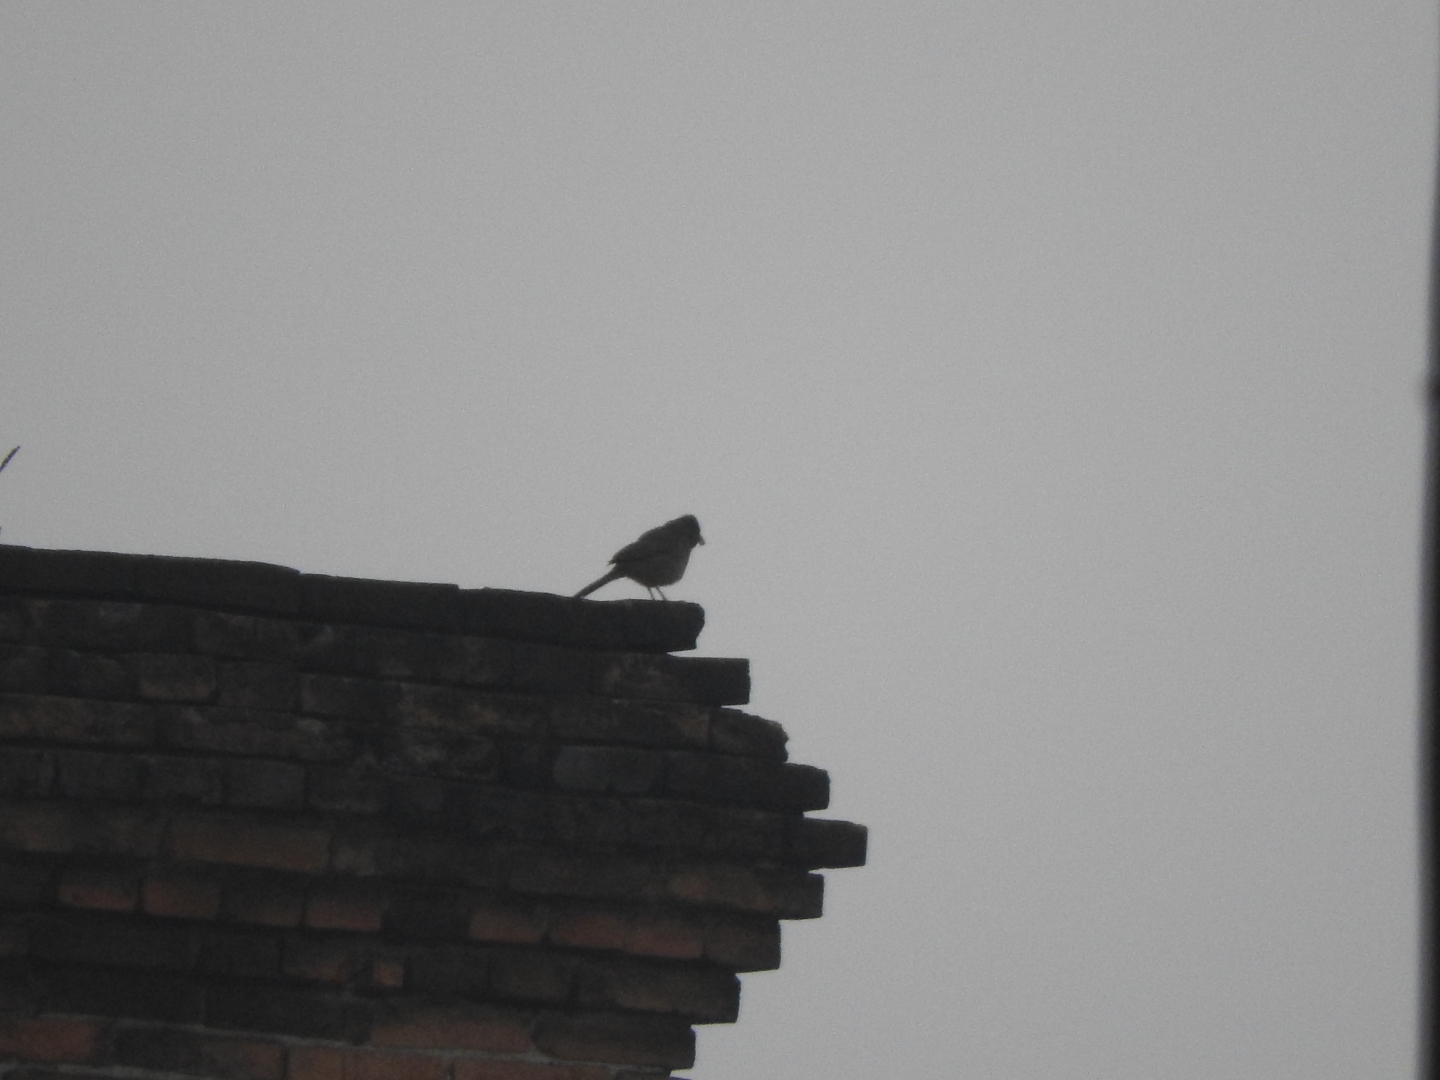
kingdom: Animalia
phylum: Chordata
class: Aves
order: Passeriformes
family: Passerellidae
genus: Melozone
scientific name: Melozone fusca
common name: Canyon towhee
